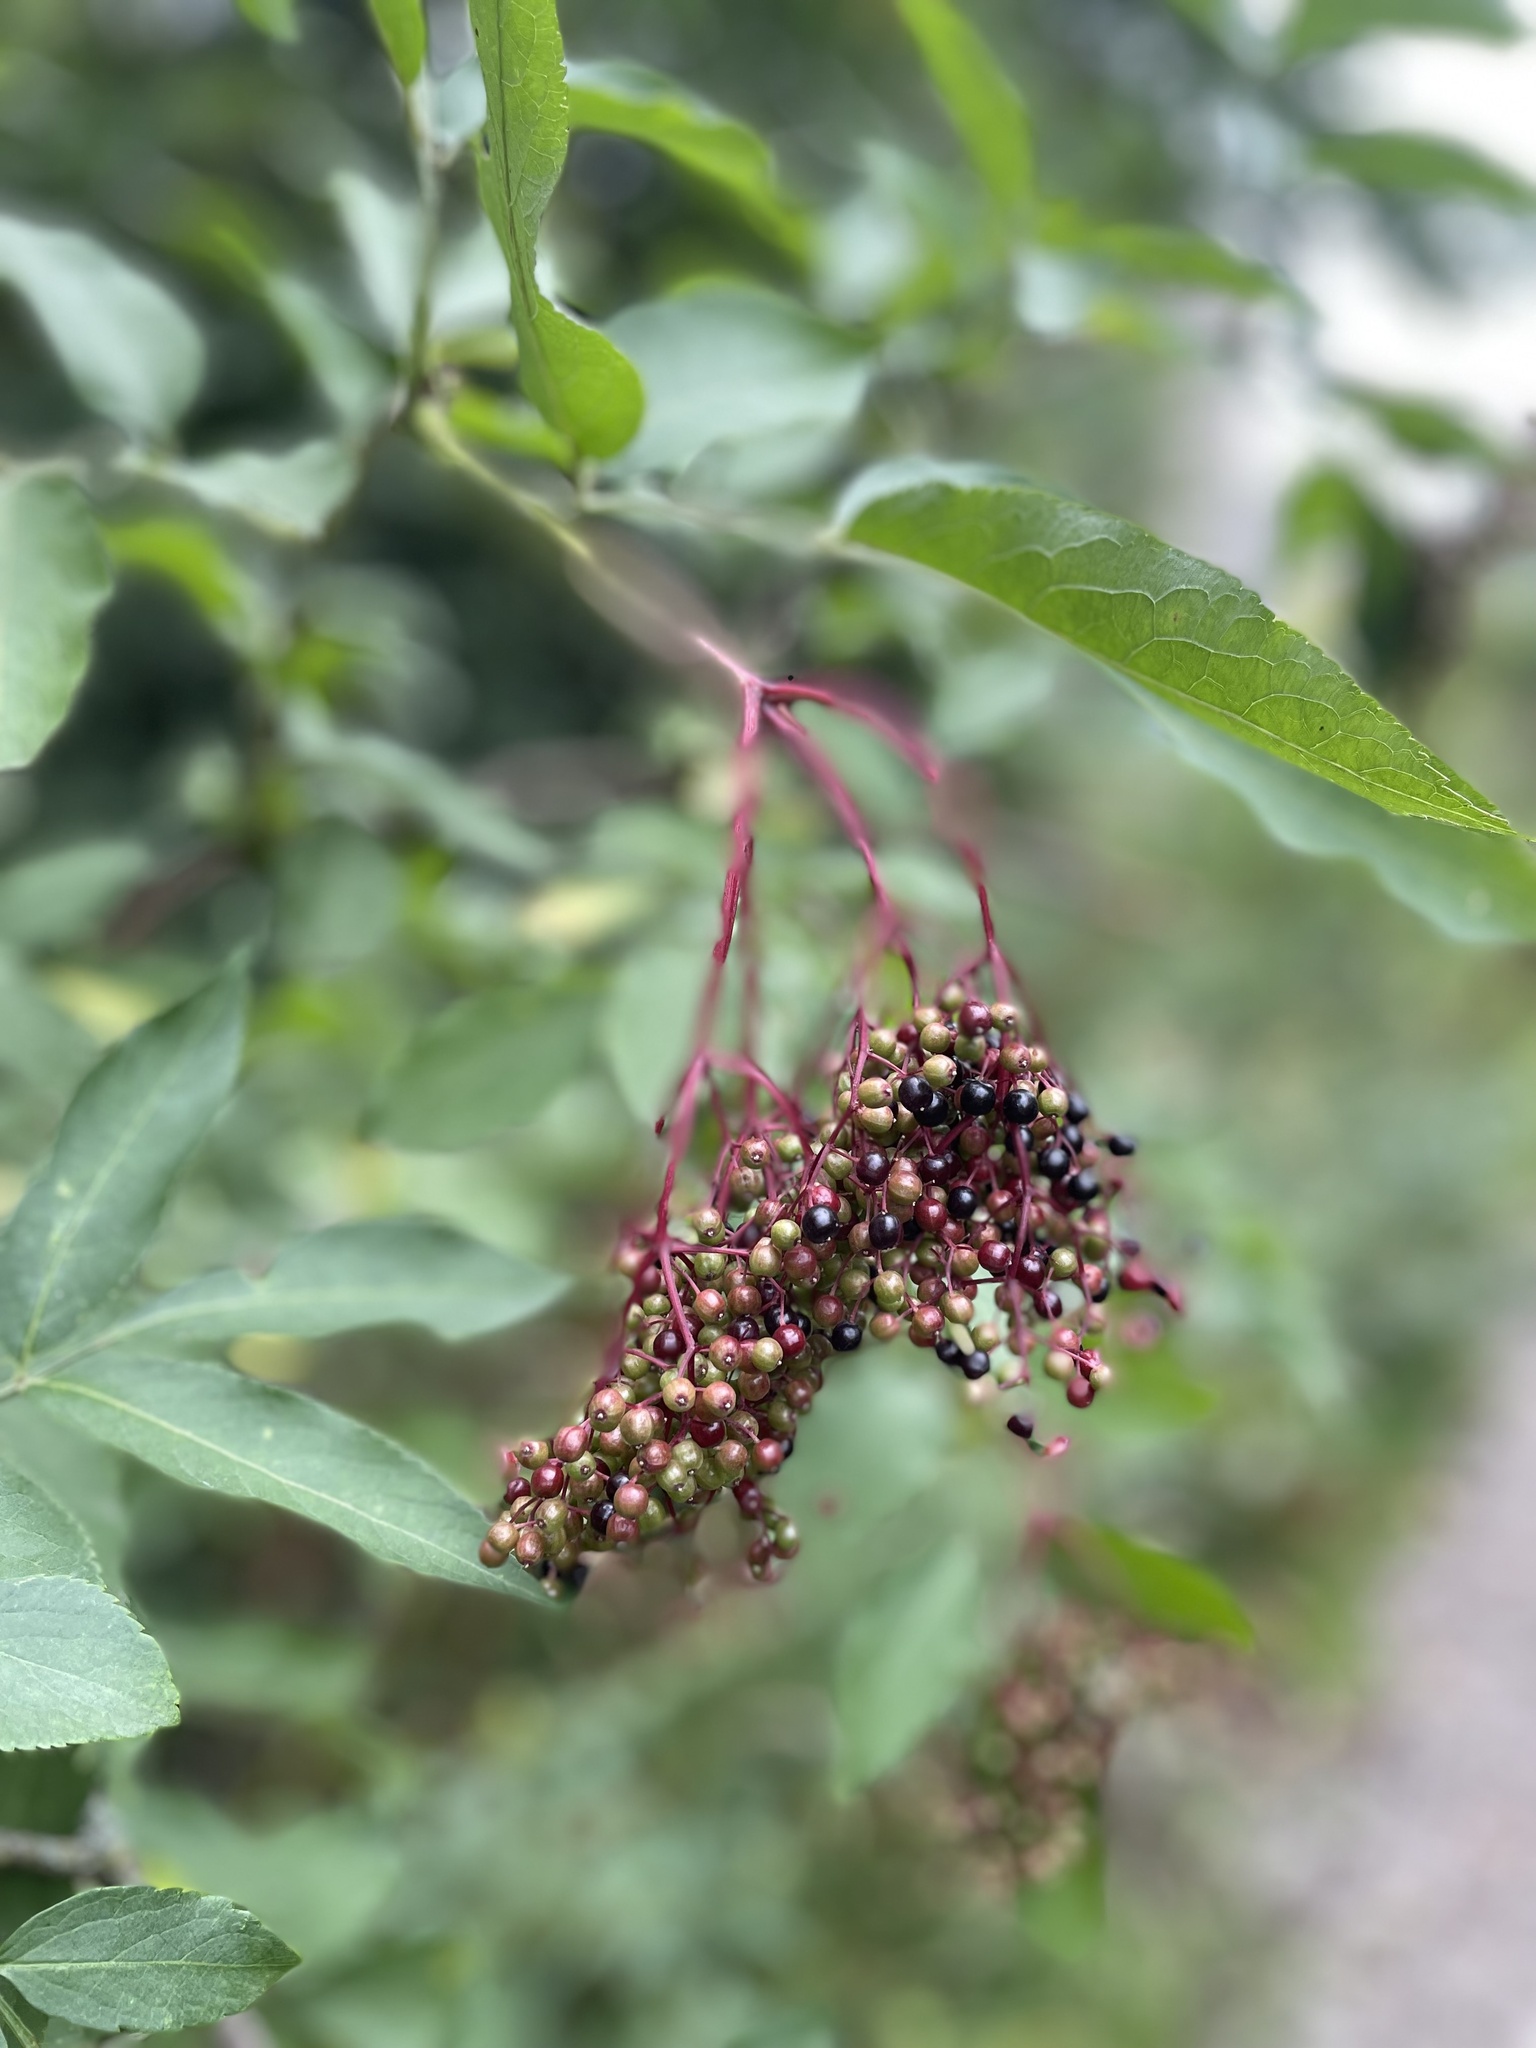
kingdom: Plantae
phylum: Tracheophyta
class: Magnoliopsida
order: Dipsacales
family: Viburnaceae
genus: Sambucus
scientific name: Sambucus nigra
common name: Elder
